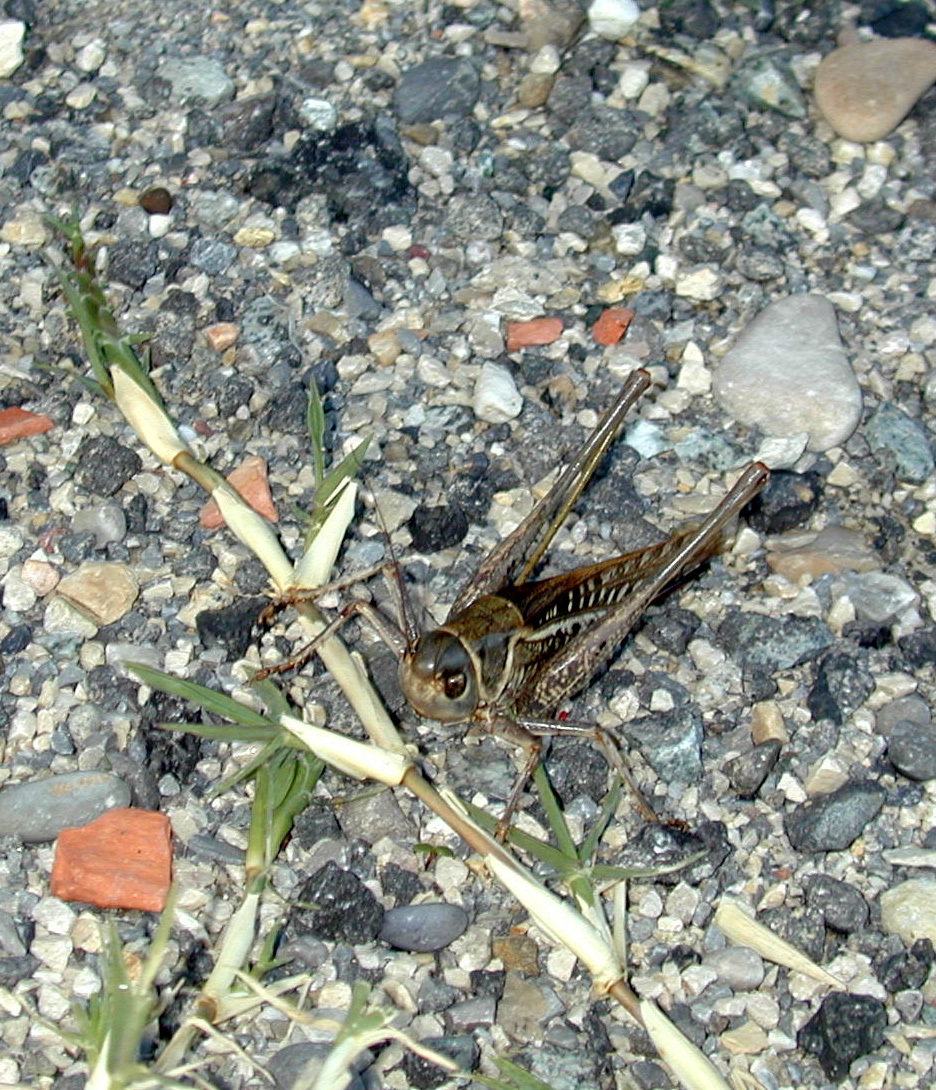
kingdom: Animalia
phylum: Arthropoda
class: Insecta
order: Orthoptera
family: Tettigoniidae
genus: Decticus
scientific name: Decticus albifrons
